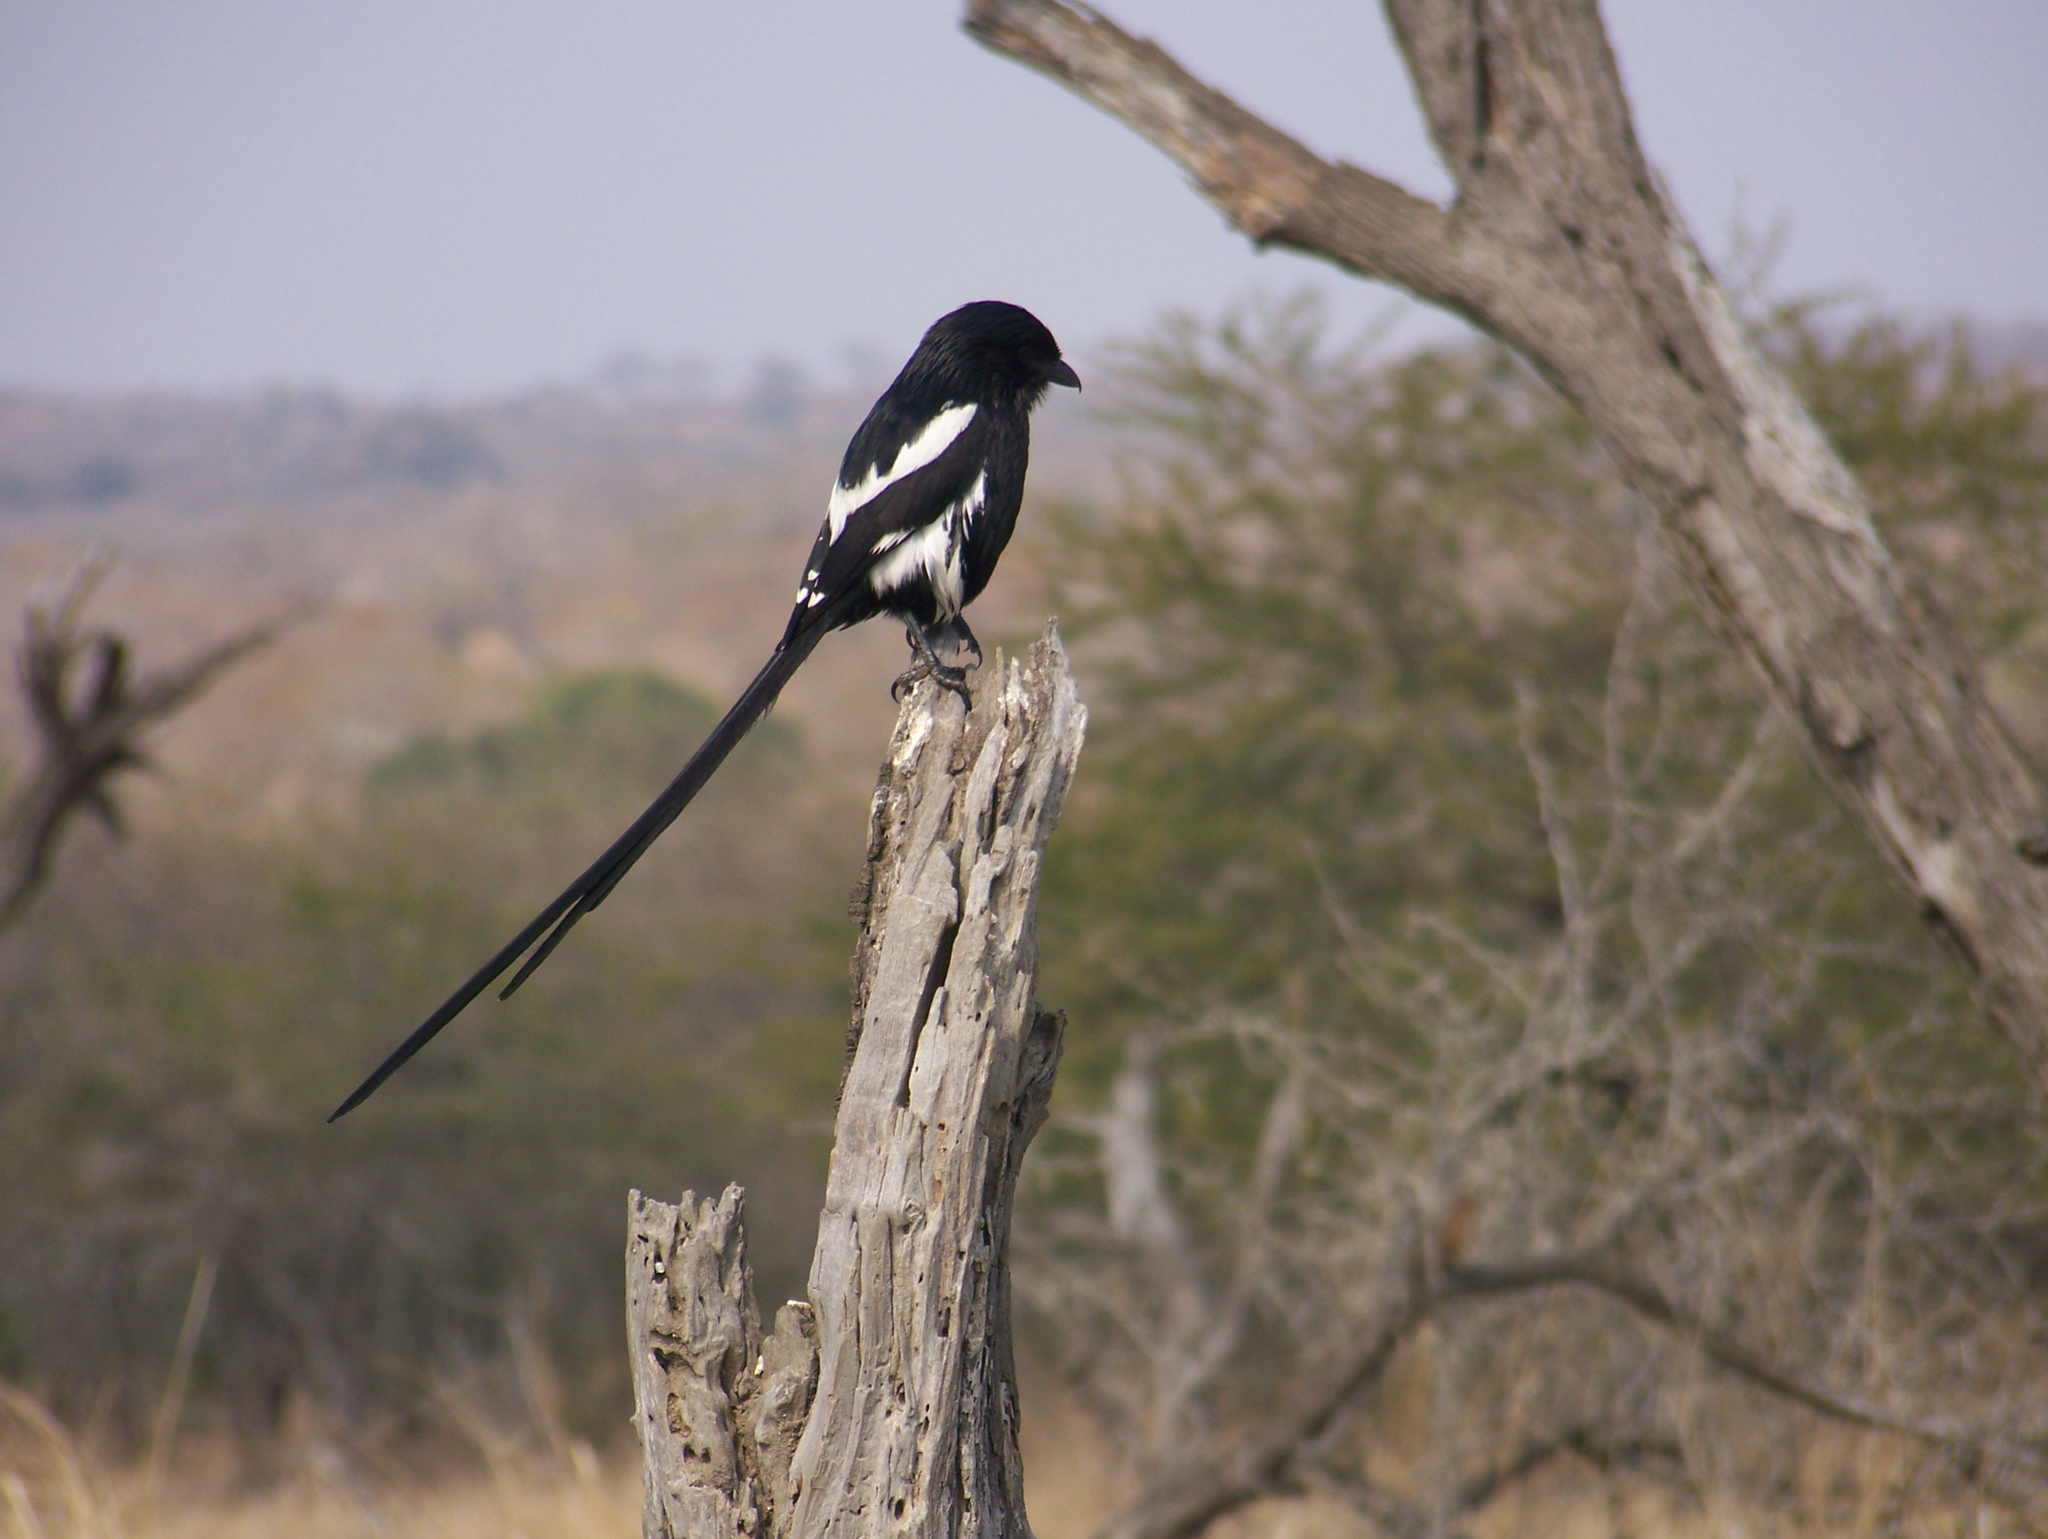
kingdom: Animalia
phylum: Chordata
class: Aves
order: Passeriformes
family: Laniidae
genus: Urolestes
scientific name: Urolestes melanoleucus
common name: Magpie shrike
